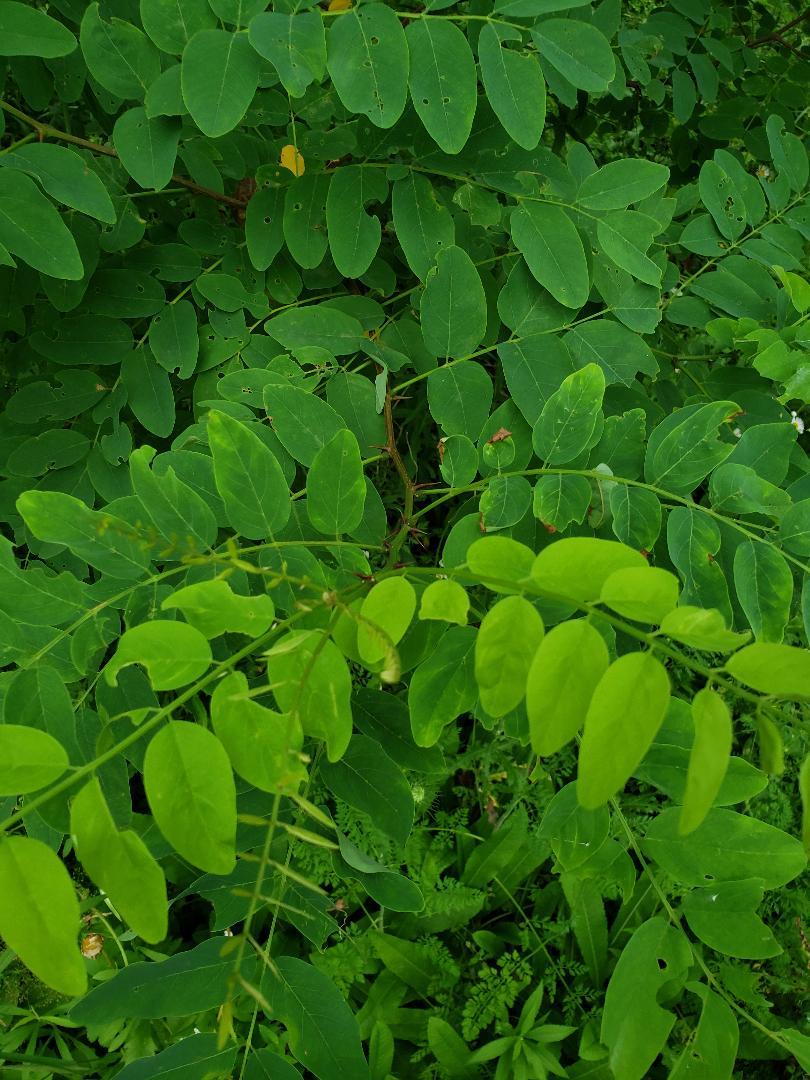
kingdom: Plantae
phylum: Tracheophyta
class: Magnoliopsida
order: Fabales
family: Fabaceae
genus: Robinia
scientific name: Robinia pseudoacacia
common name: Black locust
